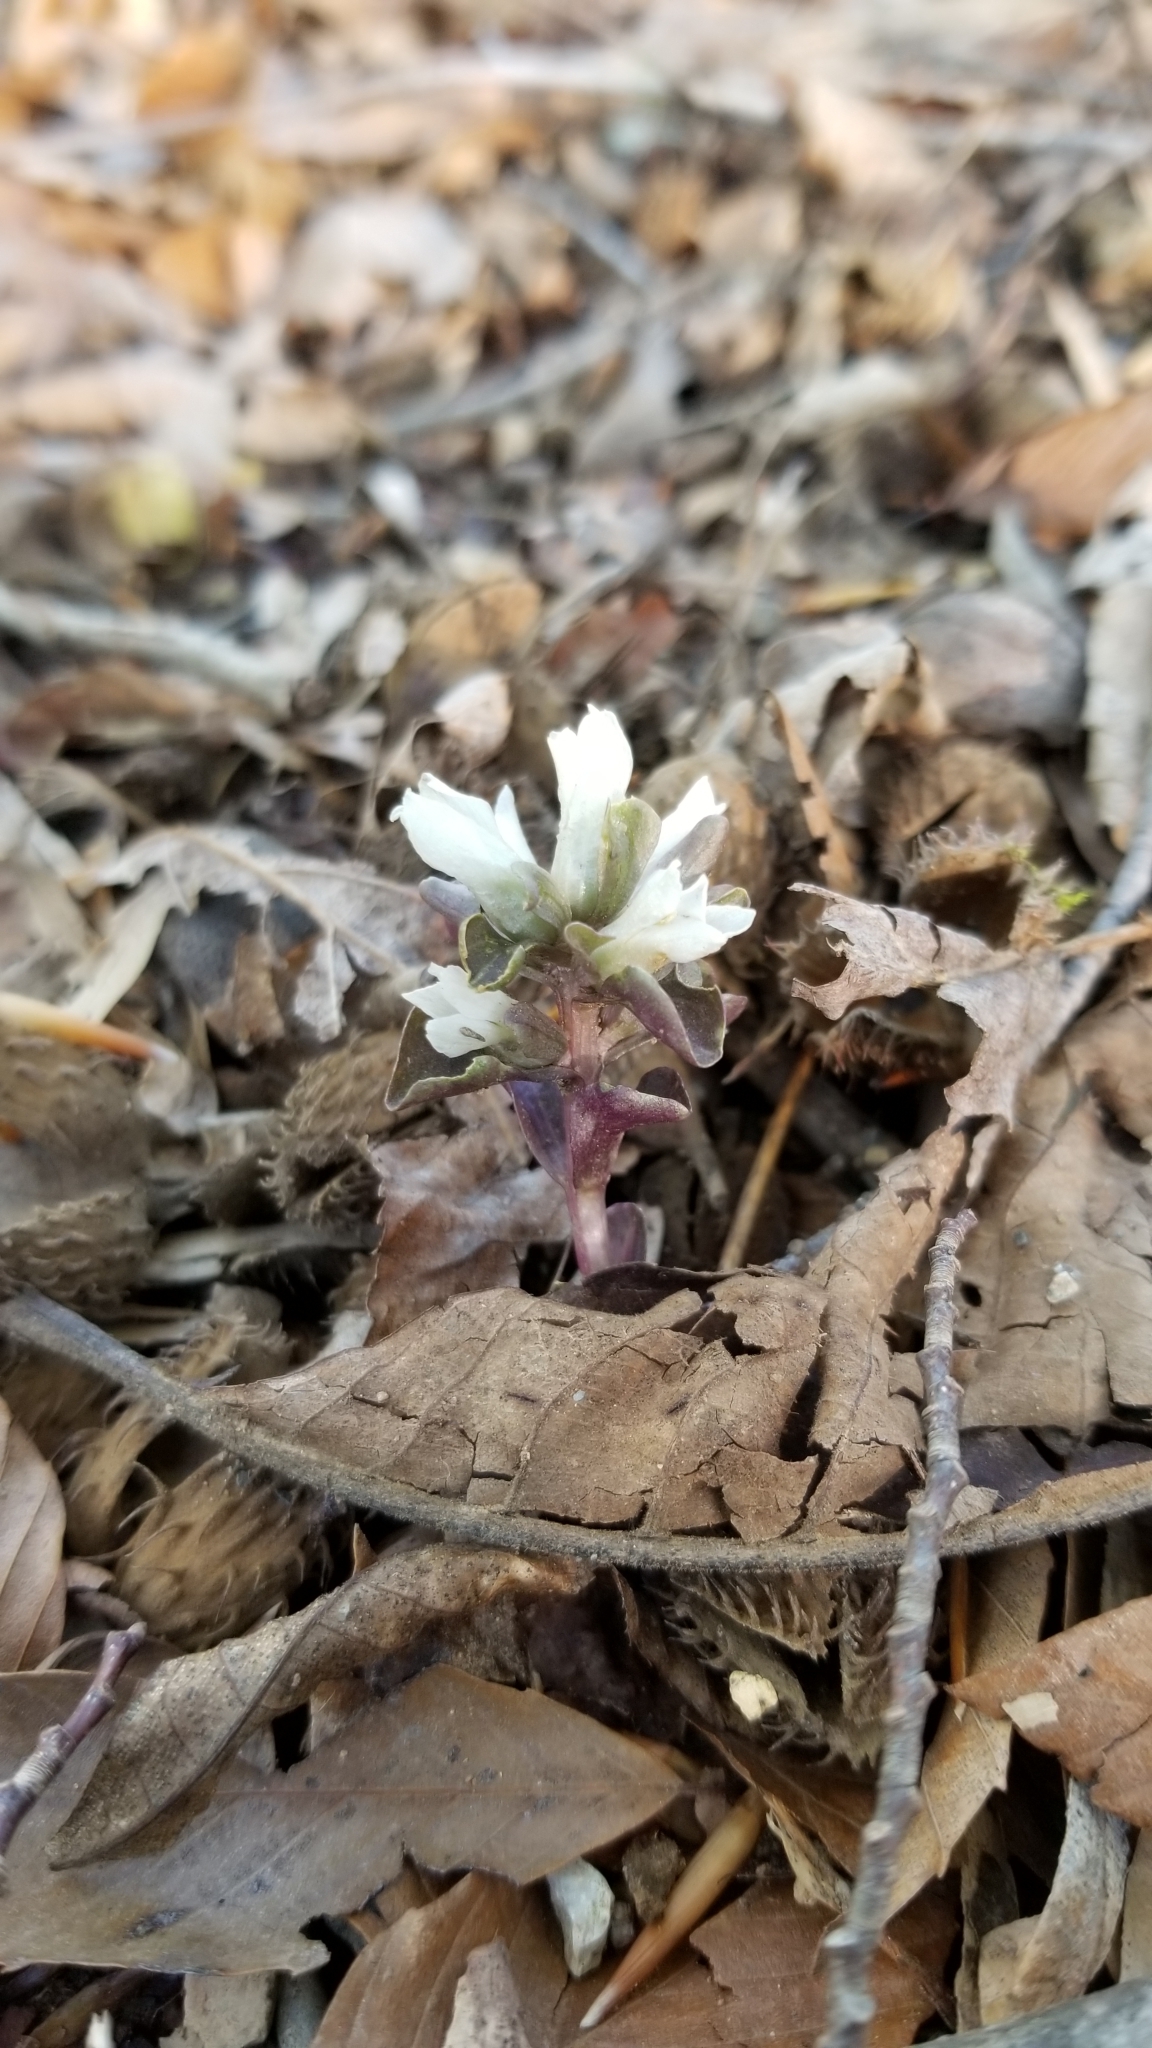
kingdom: Plantae
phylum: Tracheophyta
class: Magnoliopsida
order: Gentianales
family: Gentianaceae
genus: Obolaria
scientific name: Obolaria virginica
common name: Pennywort
